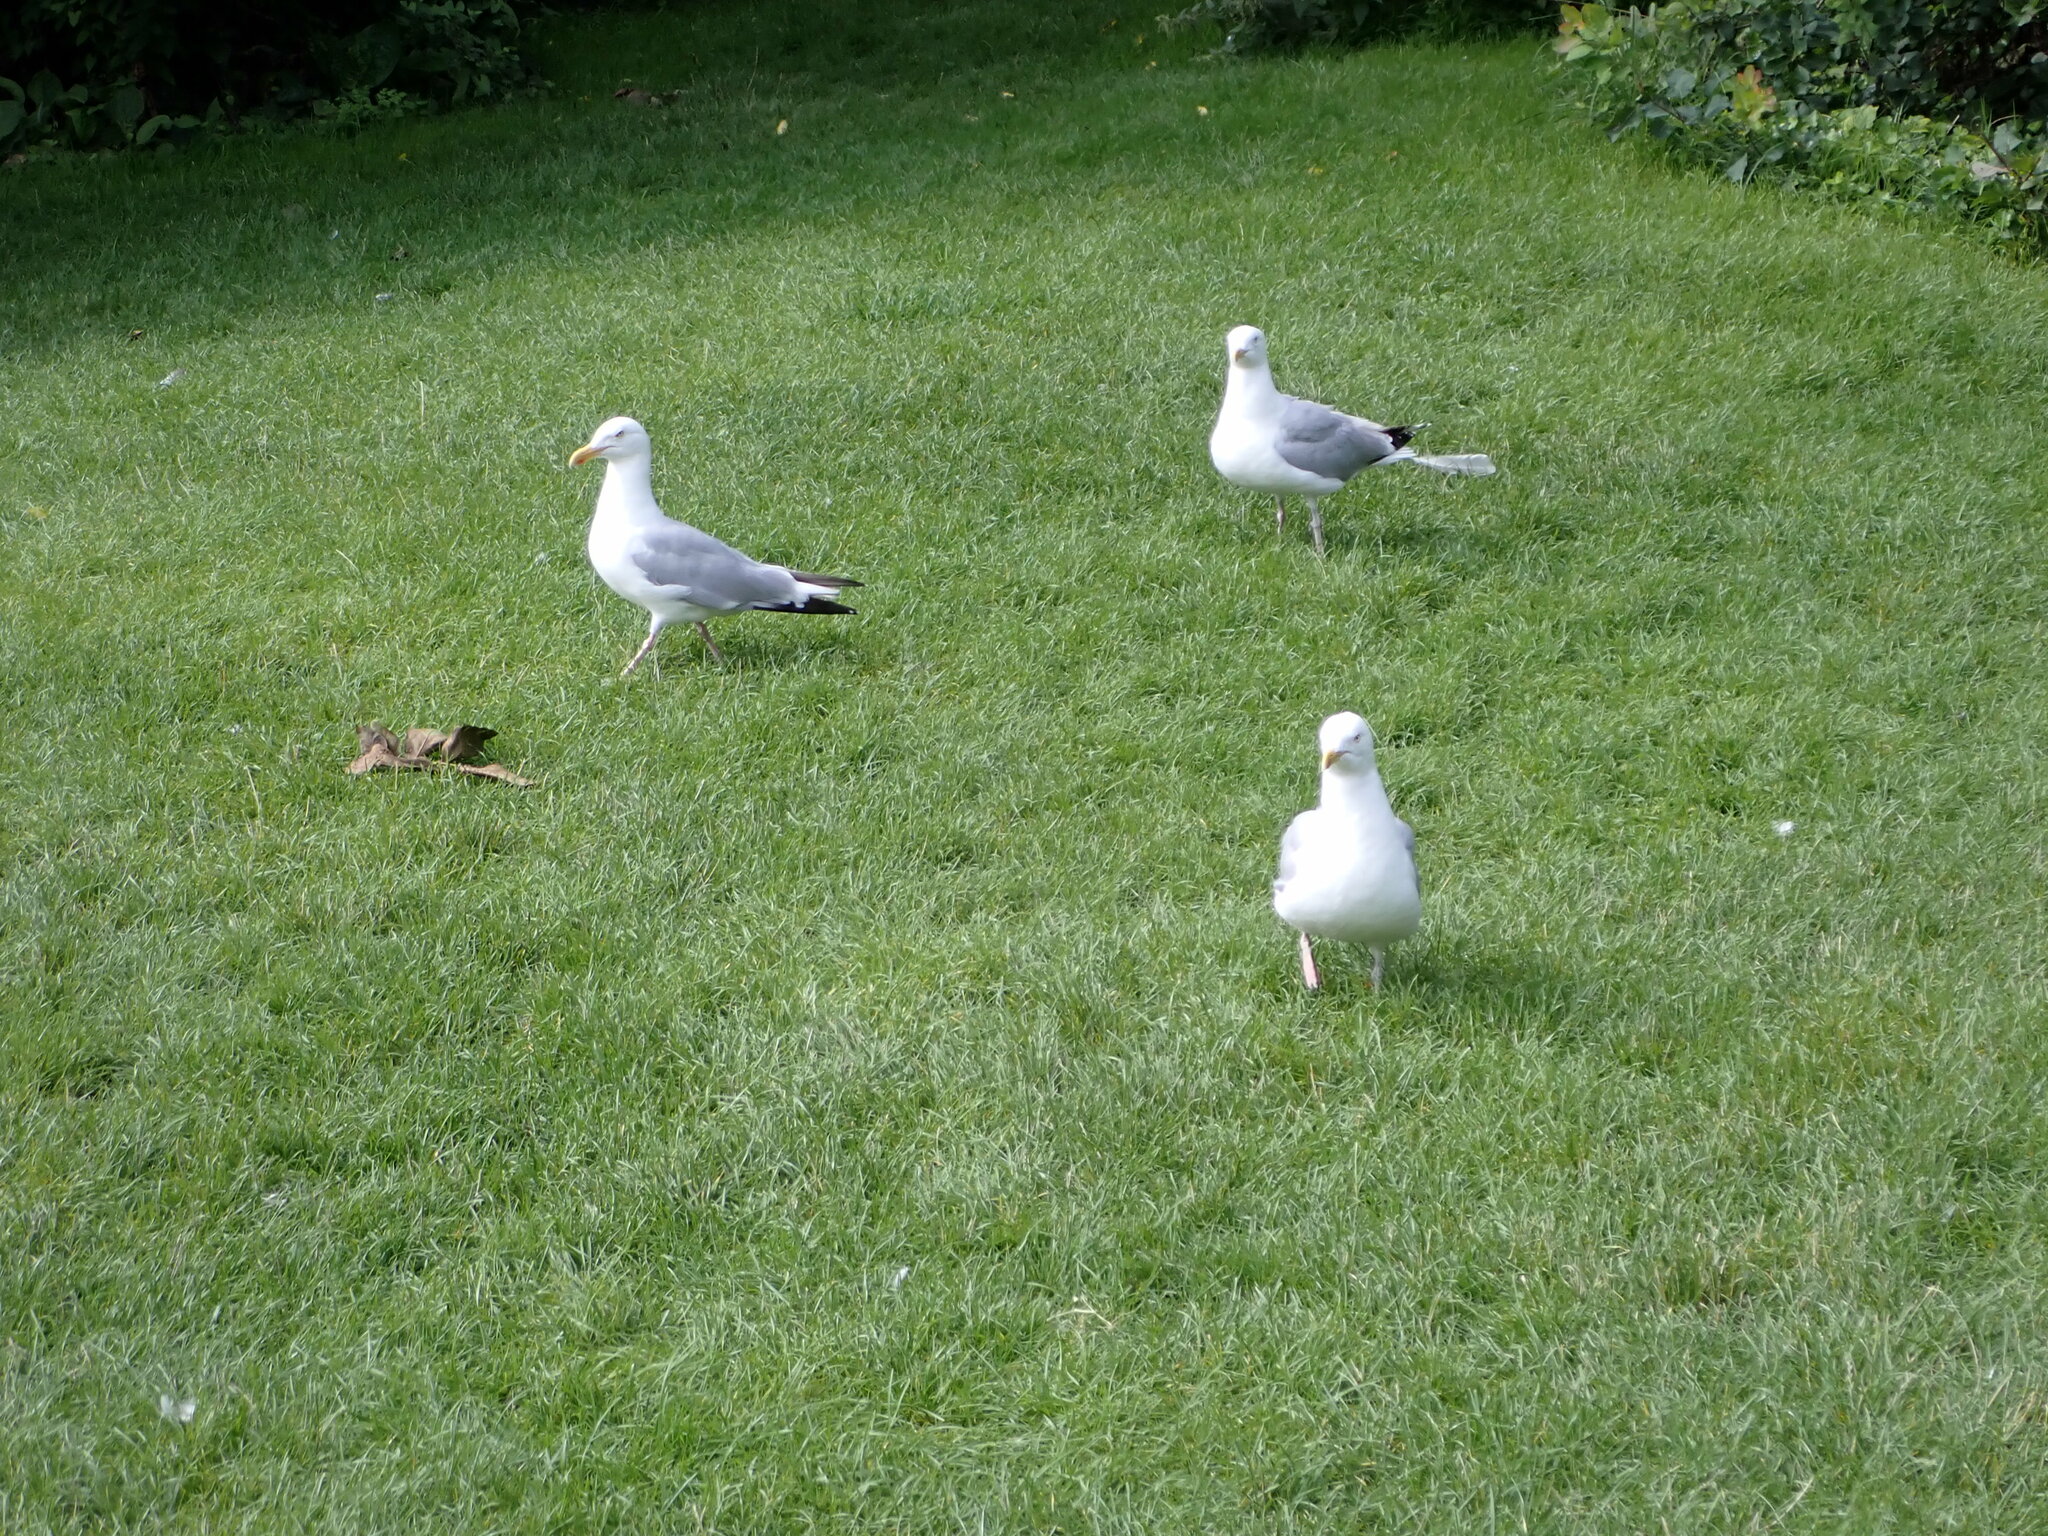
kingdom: Animalia
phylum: Chordata
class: Aves
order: Charadriiformes
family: Laridae
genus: Larus
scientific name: Larus argentatus
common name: Herring gull
